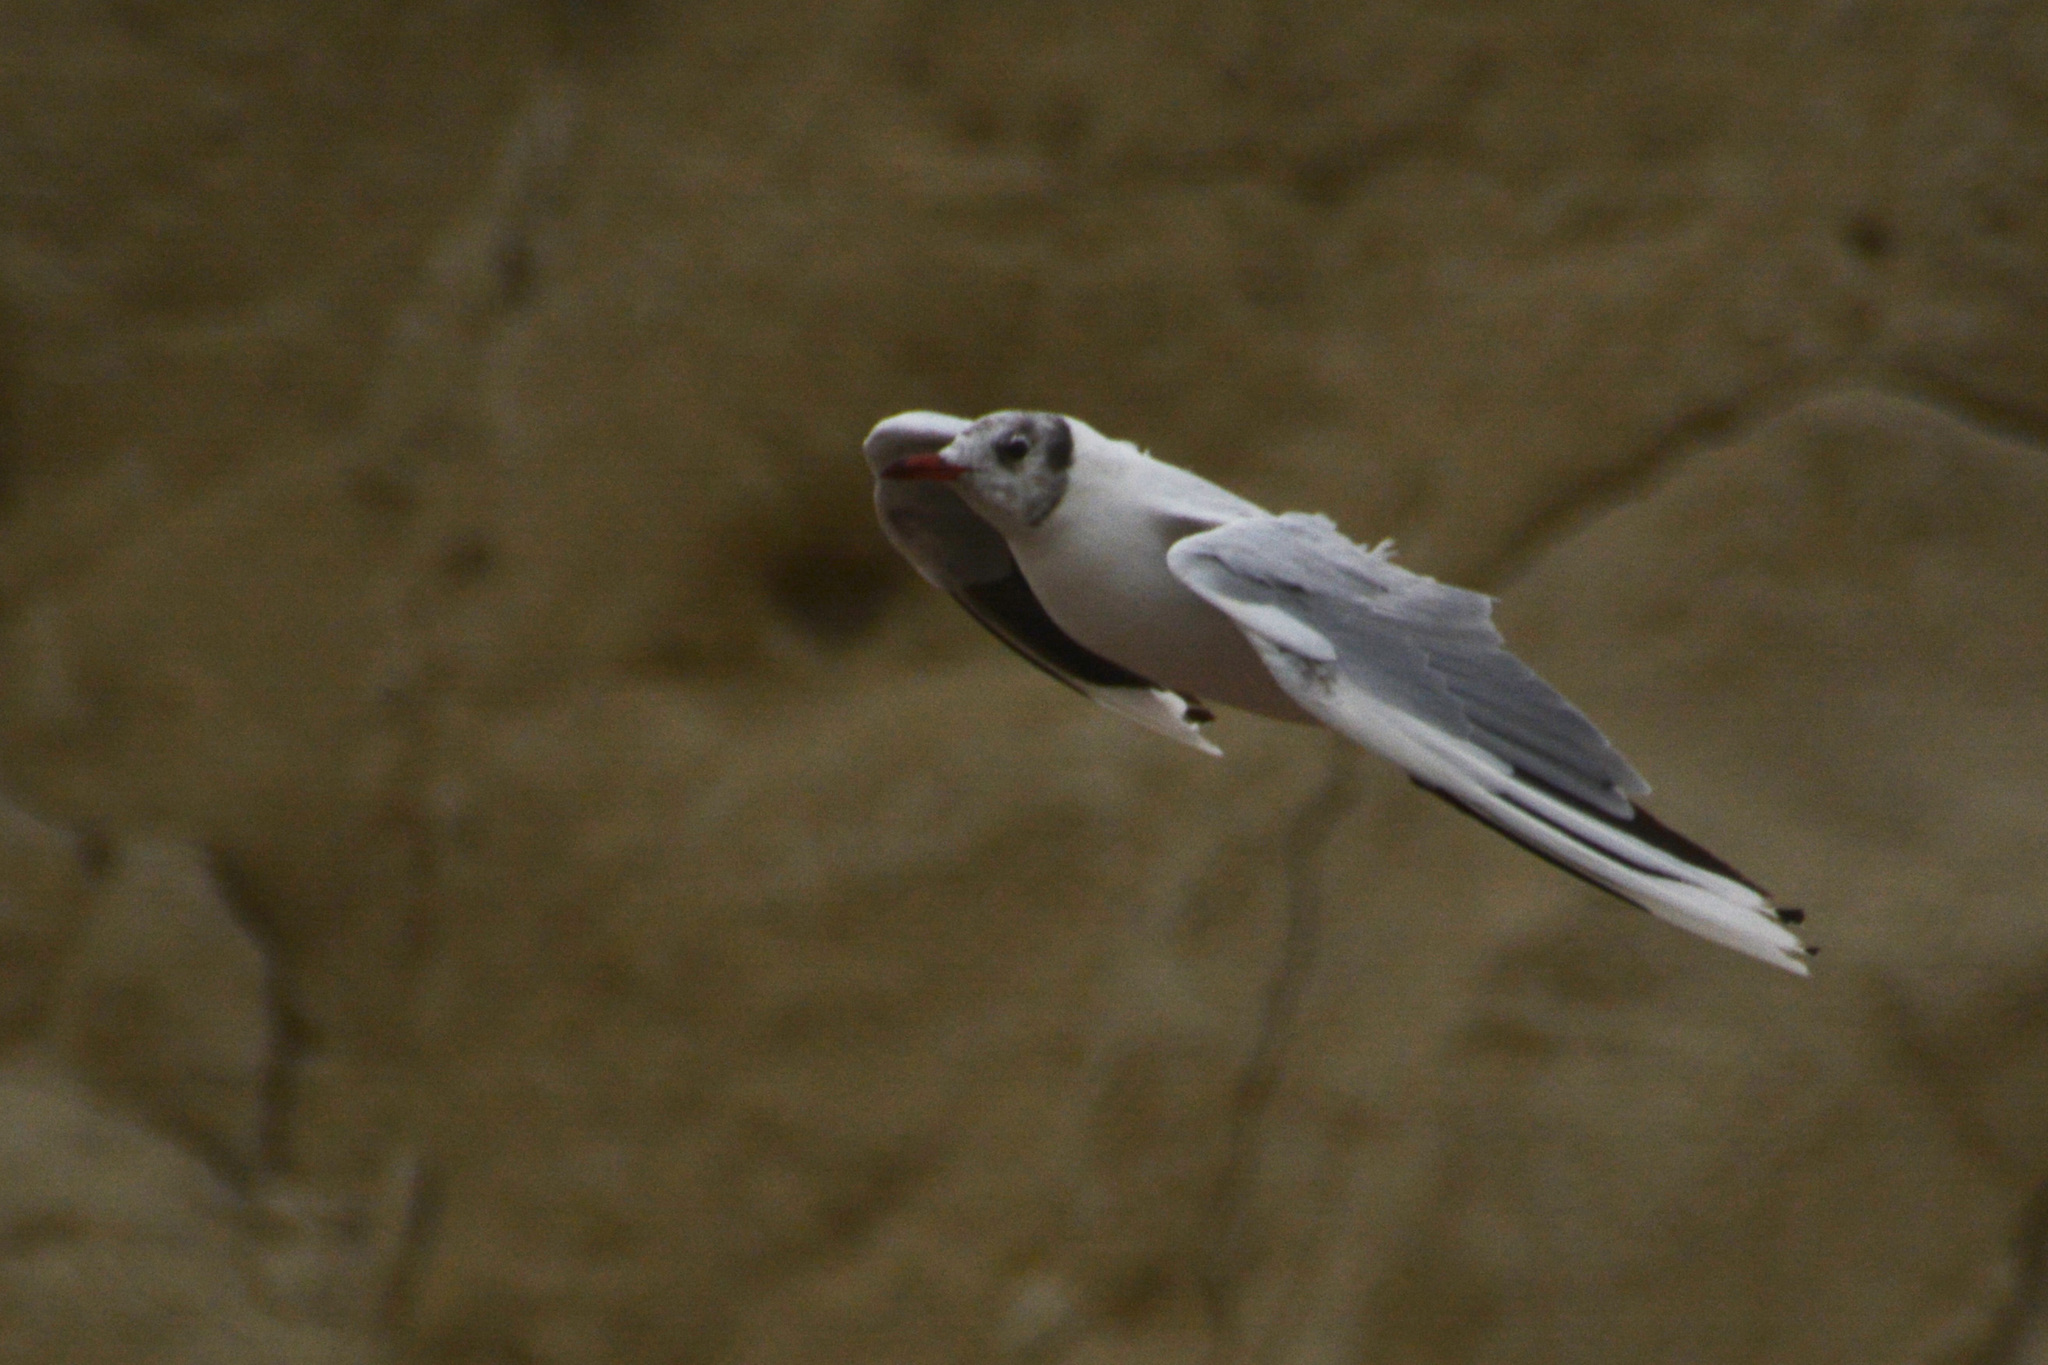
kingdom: Animalia
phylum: Chordata
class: Aves
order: Charadriiformes
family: Laridae
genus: Chroicocephalus
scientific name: Chroicocephalus maculipennis
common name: Brown-hooded gull
